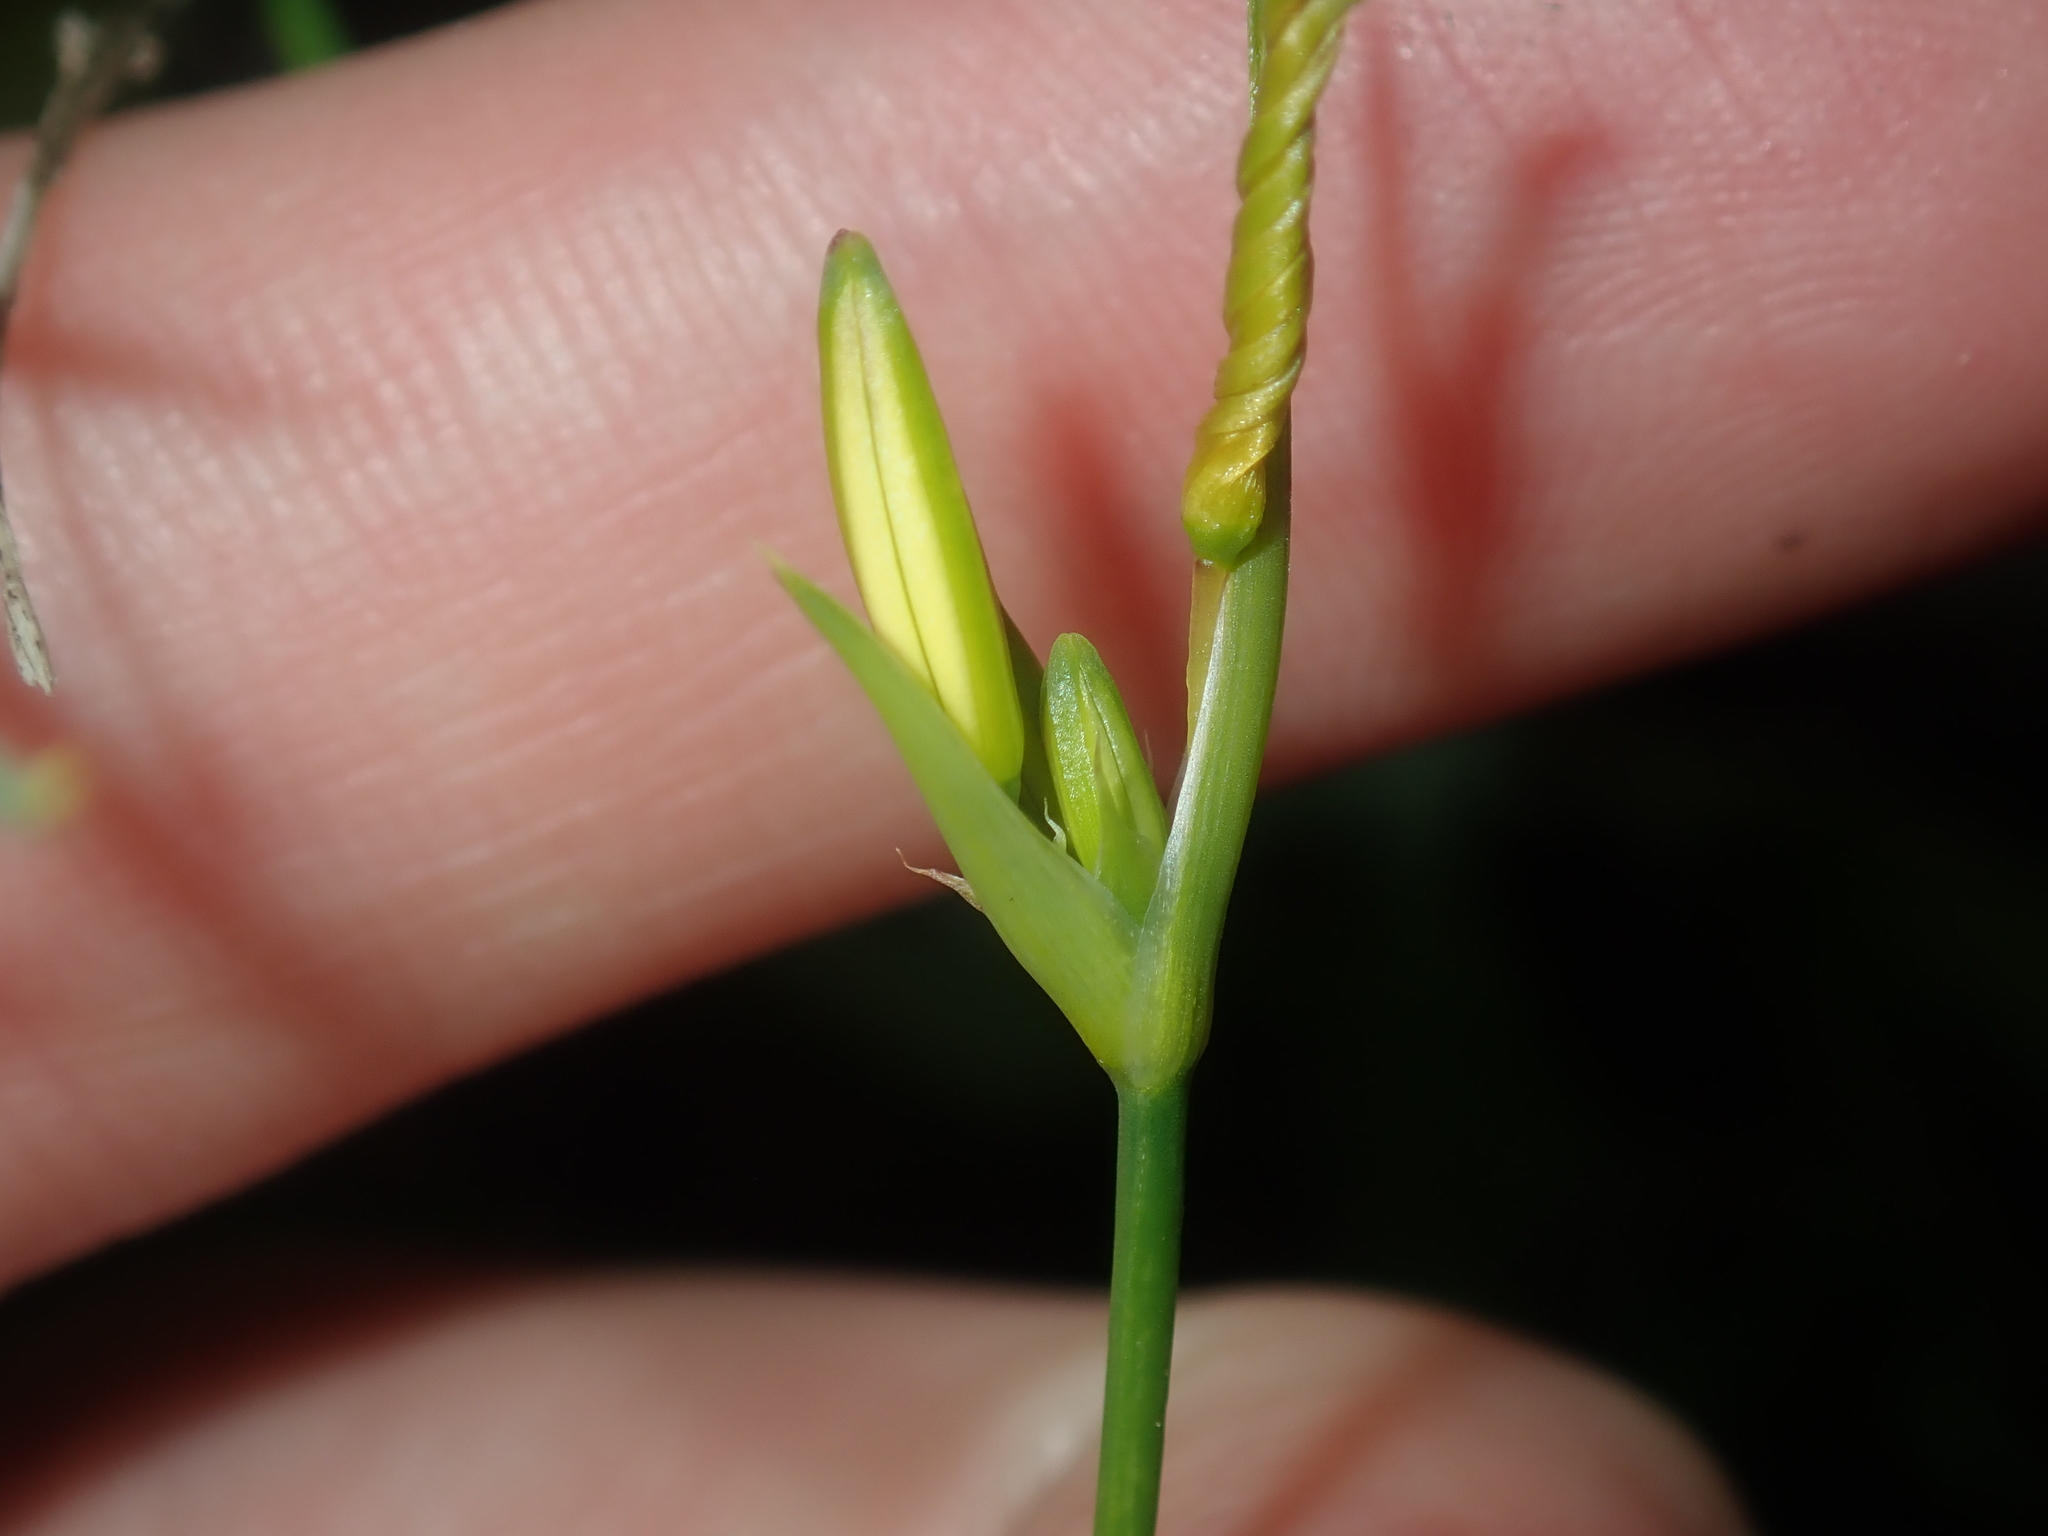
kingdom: Plantae
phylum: Tracheophyta
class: Liliopsida
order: Asparagales
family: Asphodelaceae
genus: Tricoryne
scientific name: Tricoryne elatior
